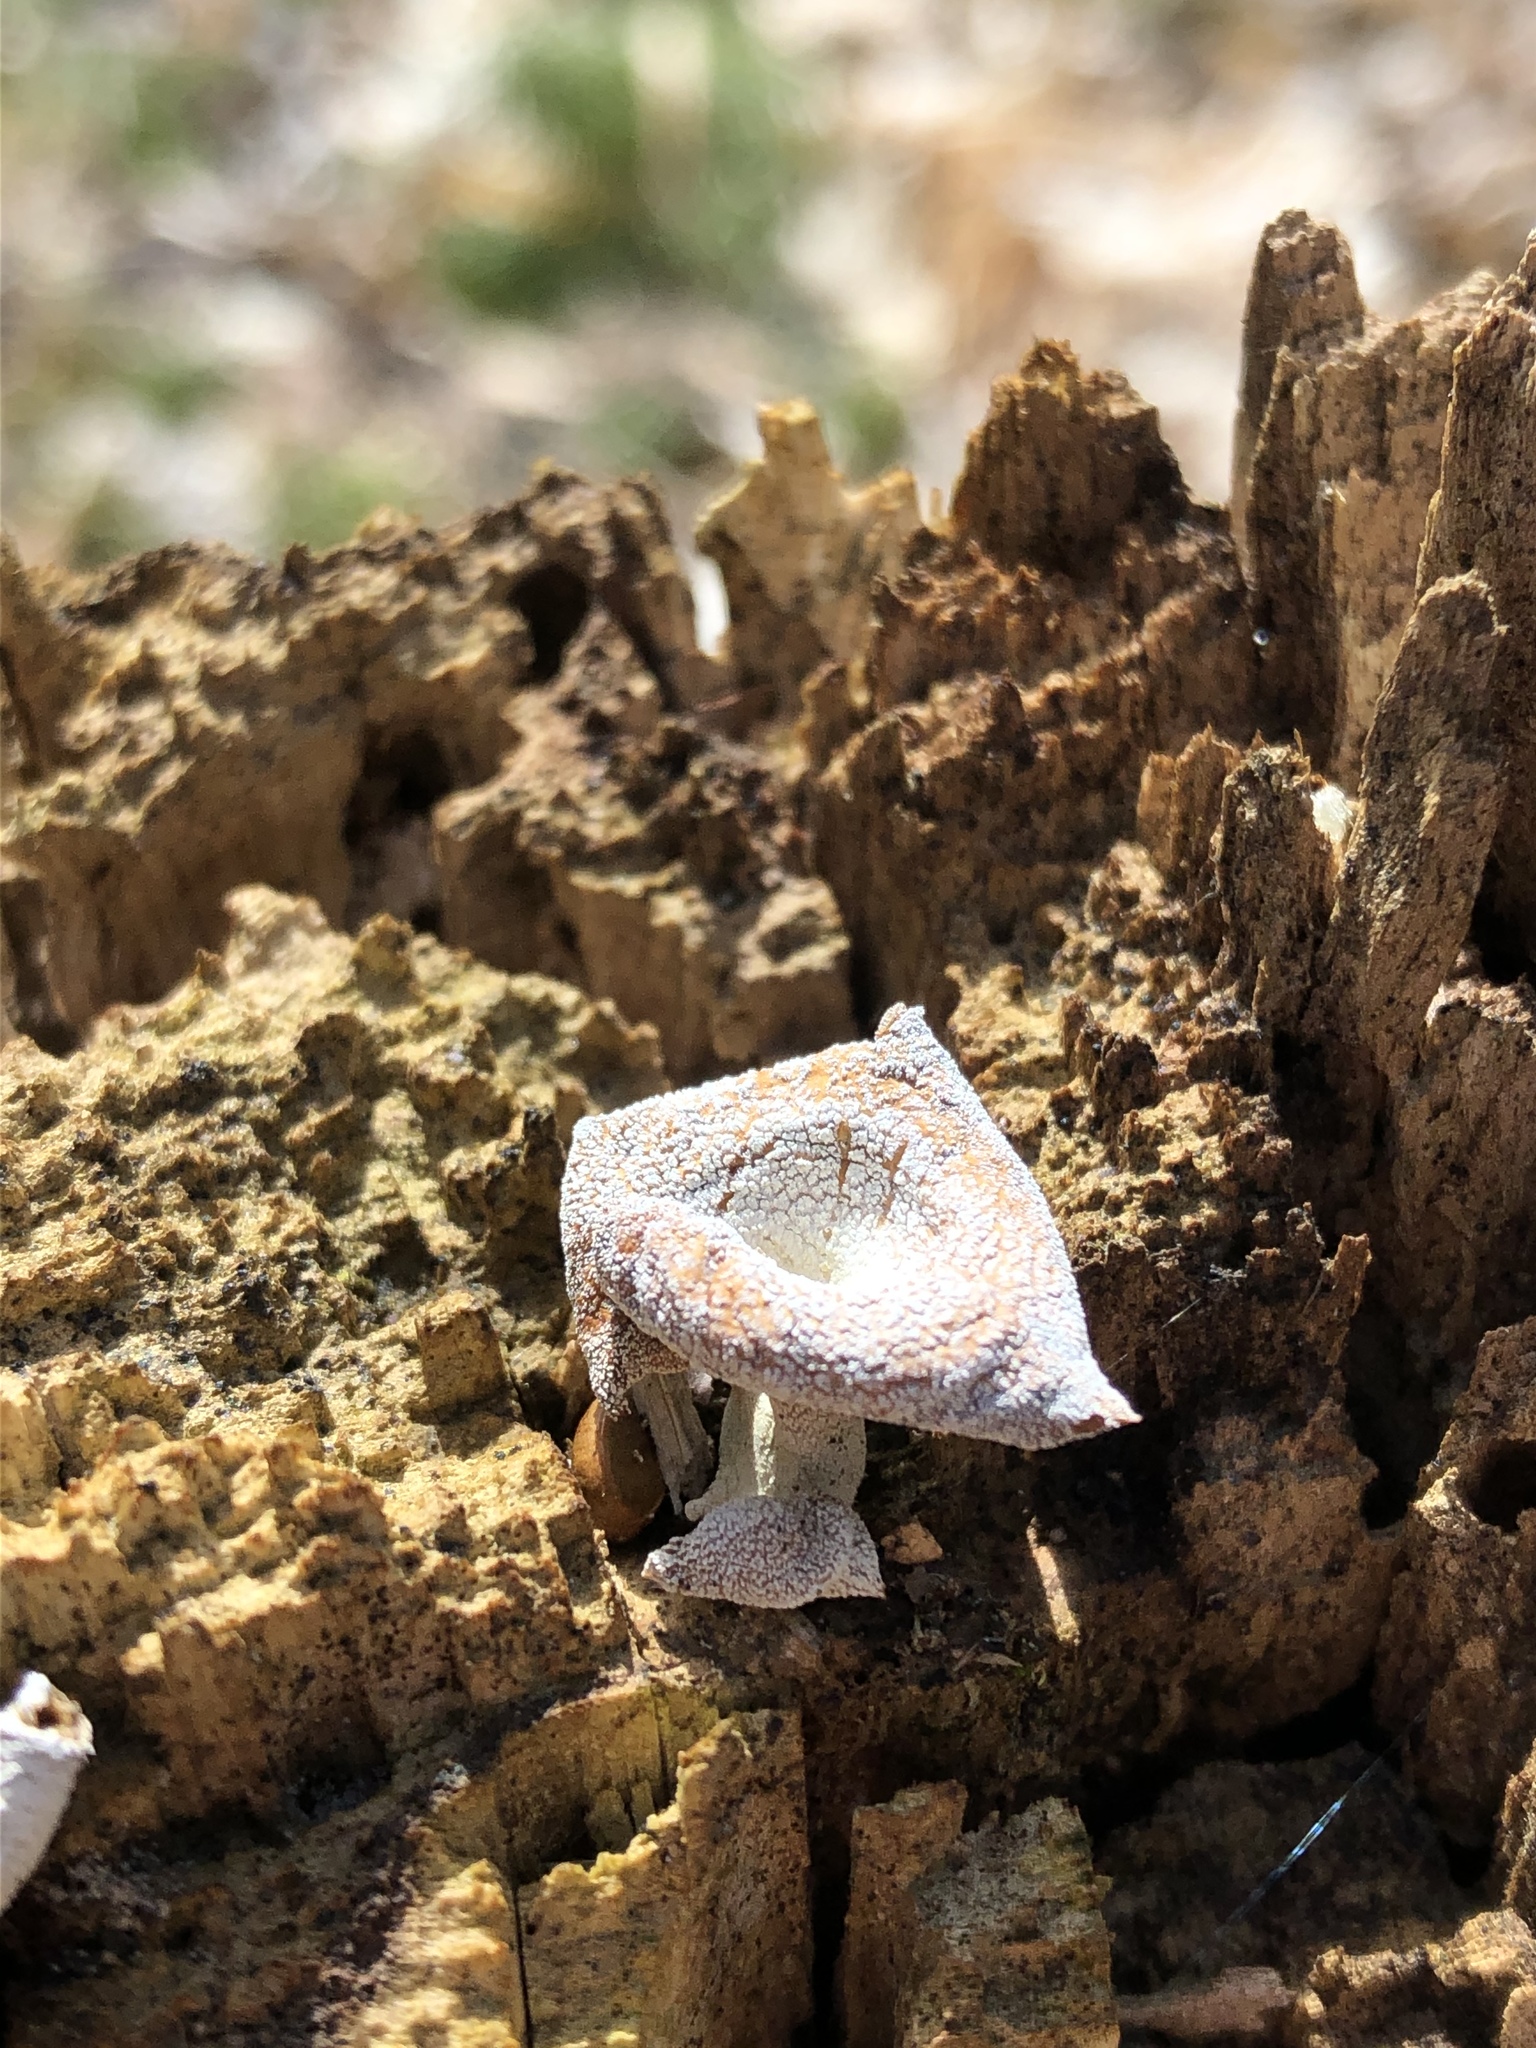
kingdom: Fungi
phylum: Basidiomycota
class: Agaricomycetes
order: Agaricales
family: Mycenaceae
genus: Panellus
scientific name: Panellus stipticus
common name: Bitter oysterling
